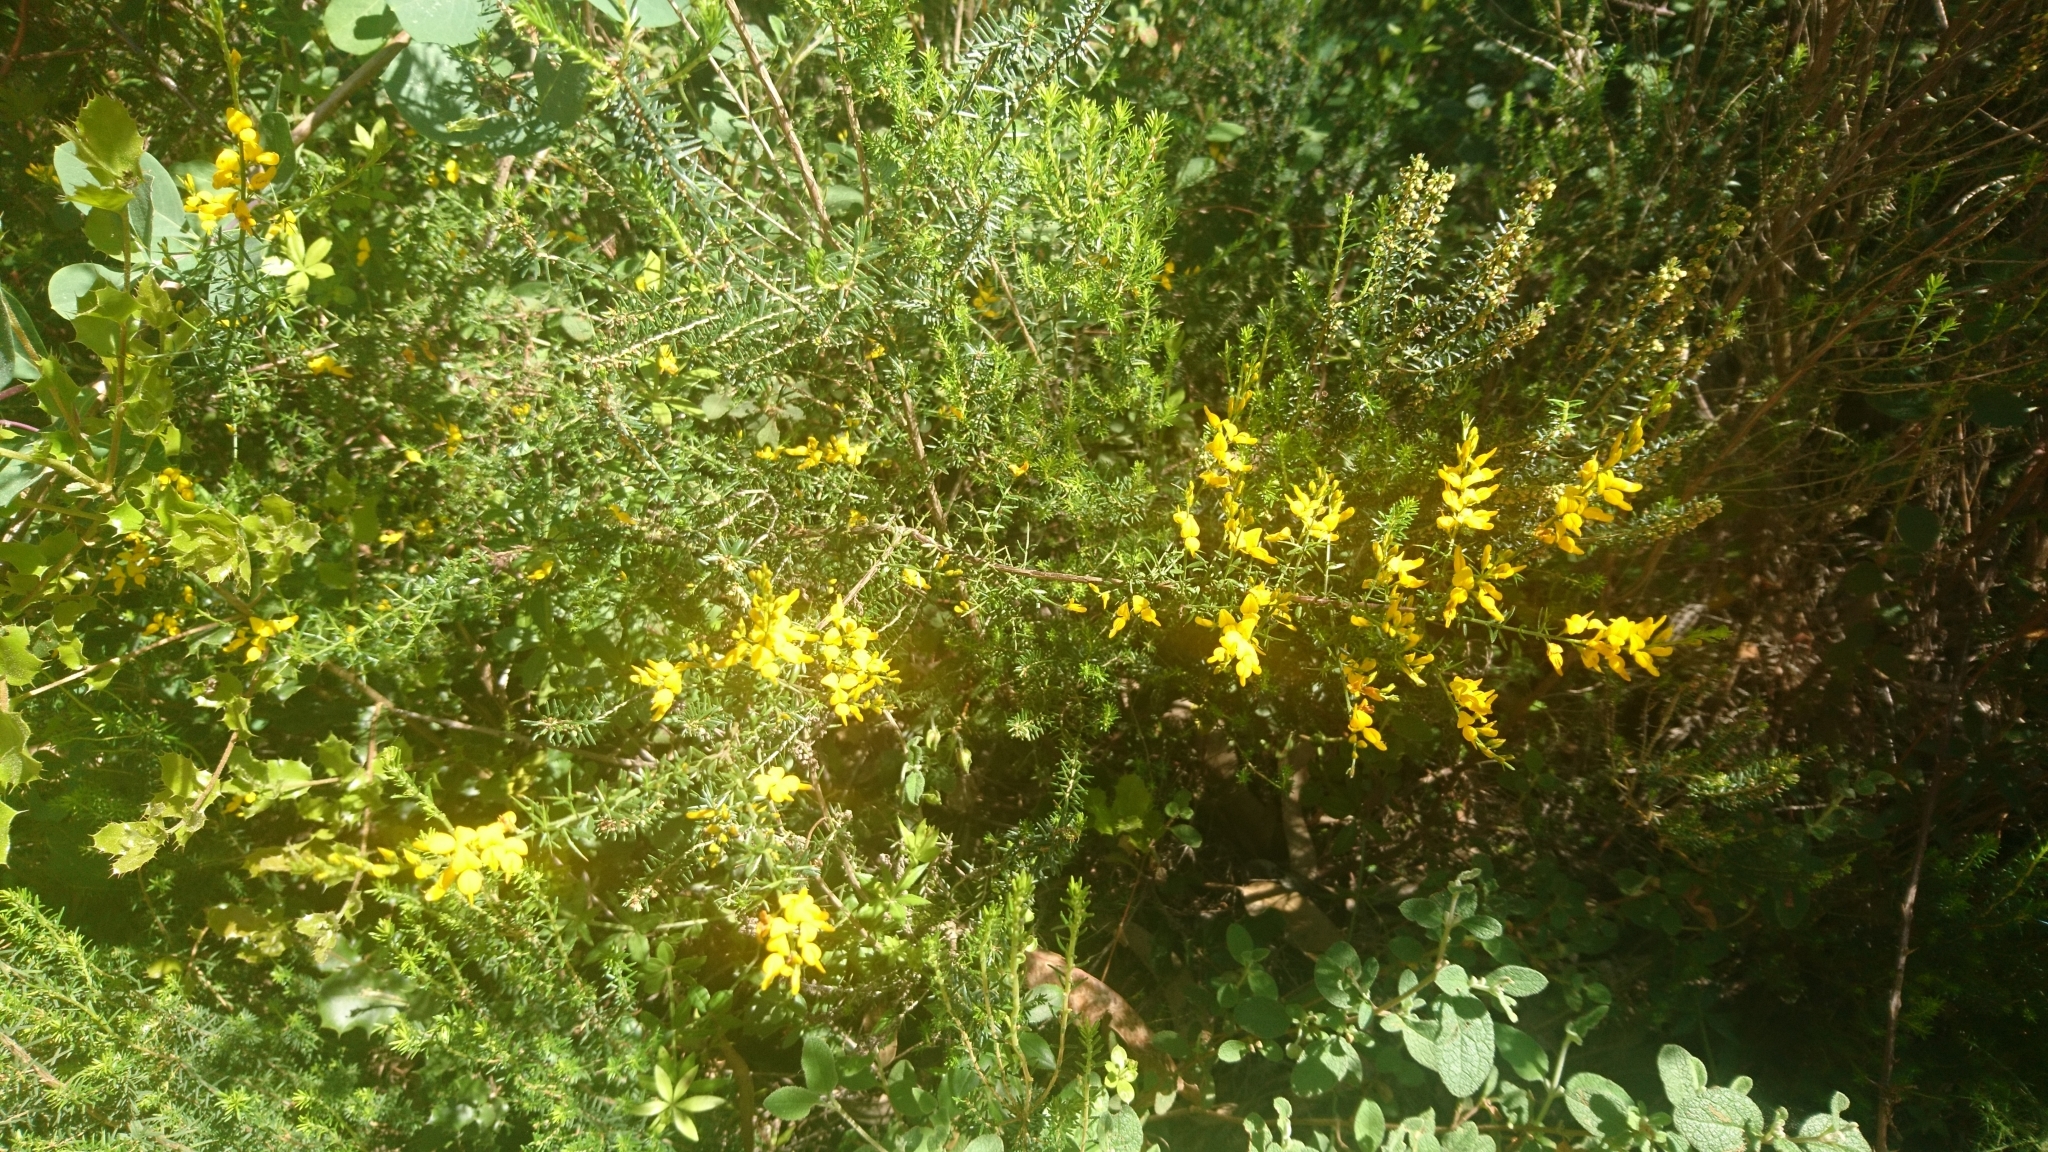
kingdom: Plantae
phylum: Tracheophyta
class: Magnoliopsida
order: Fabales
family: Fabaceae
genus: Genista
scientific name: Genista triacanthos
